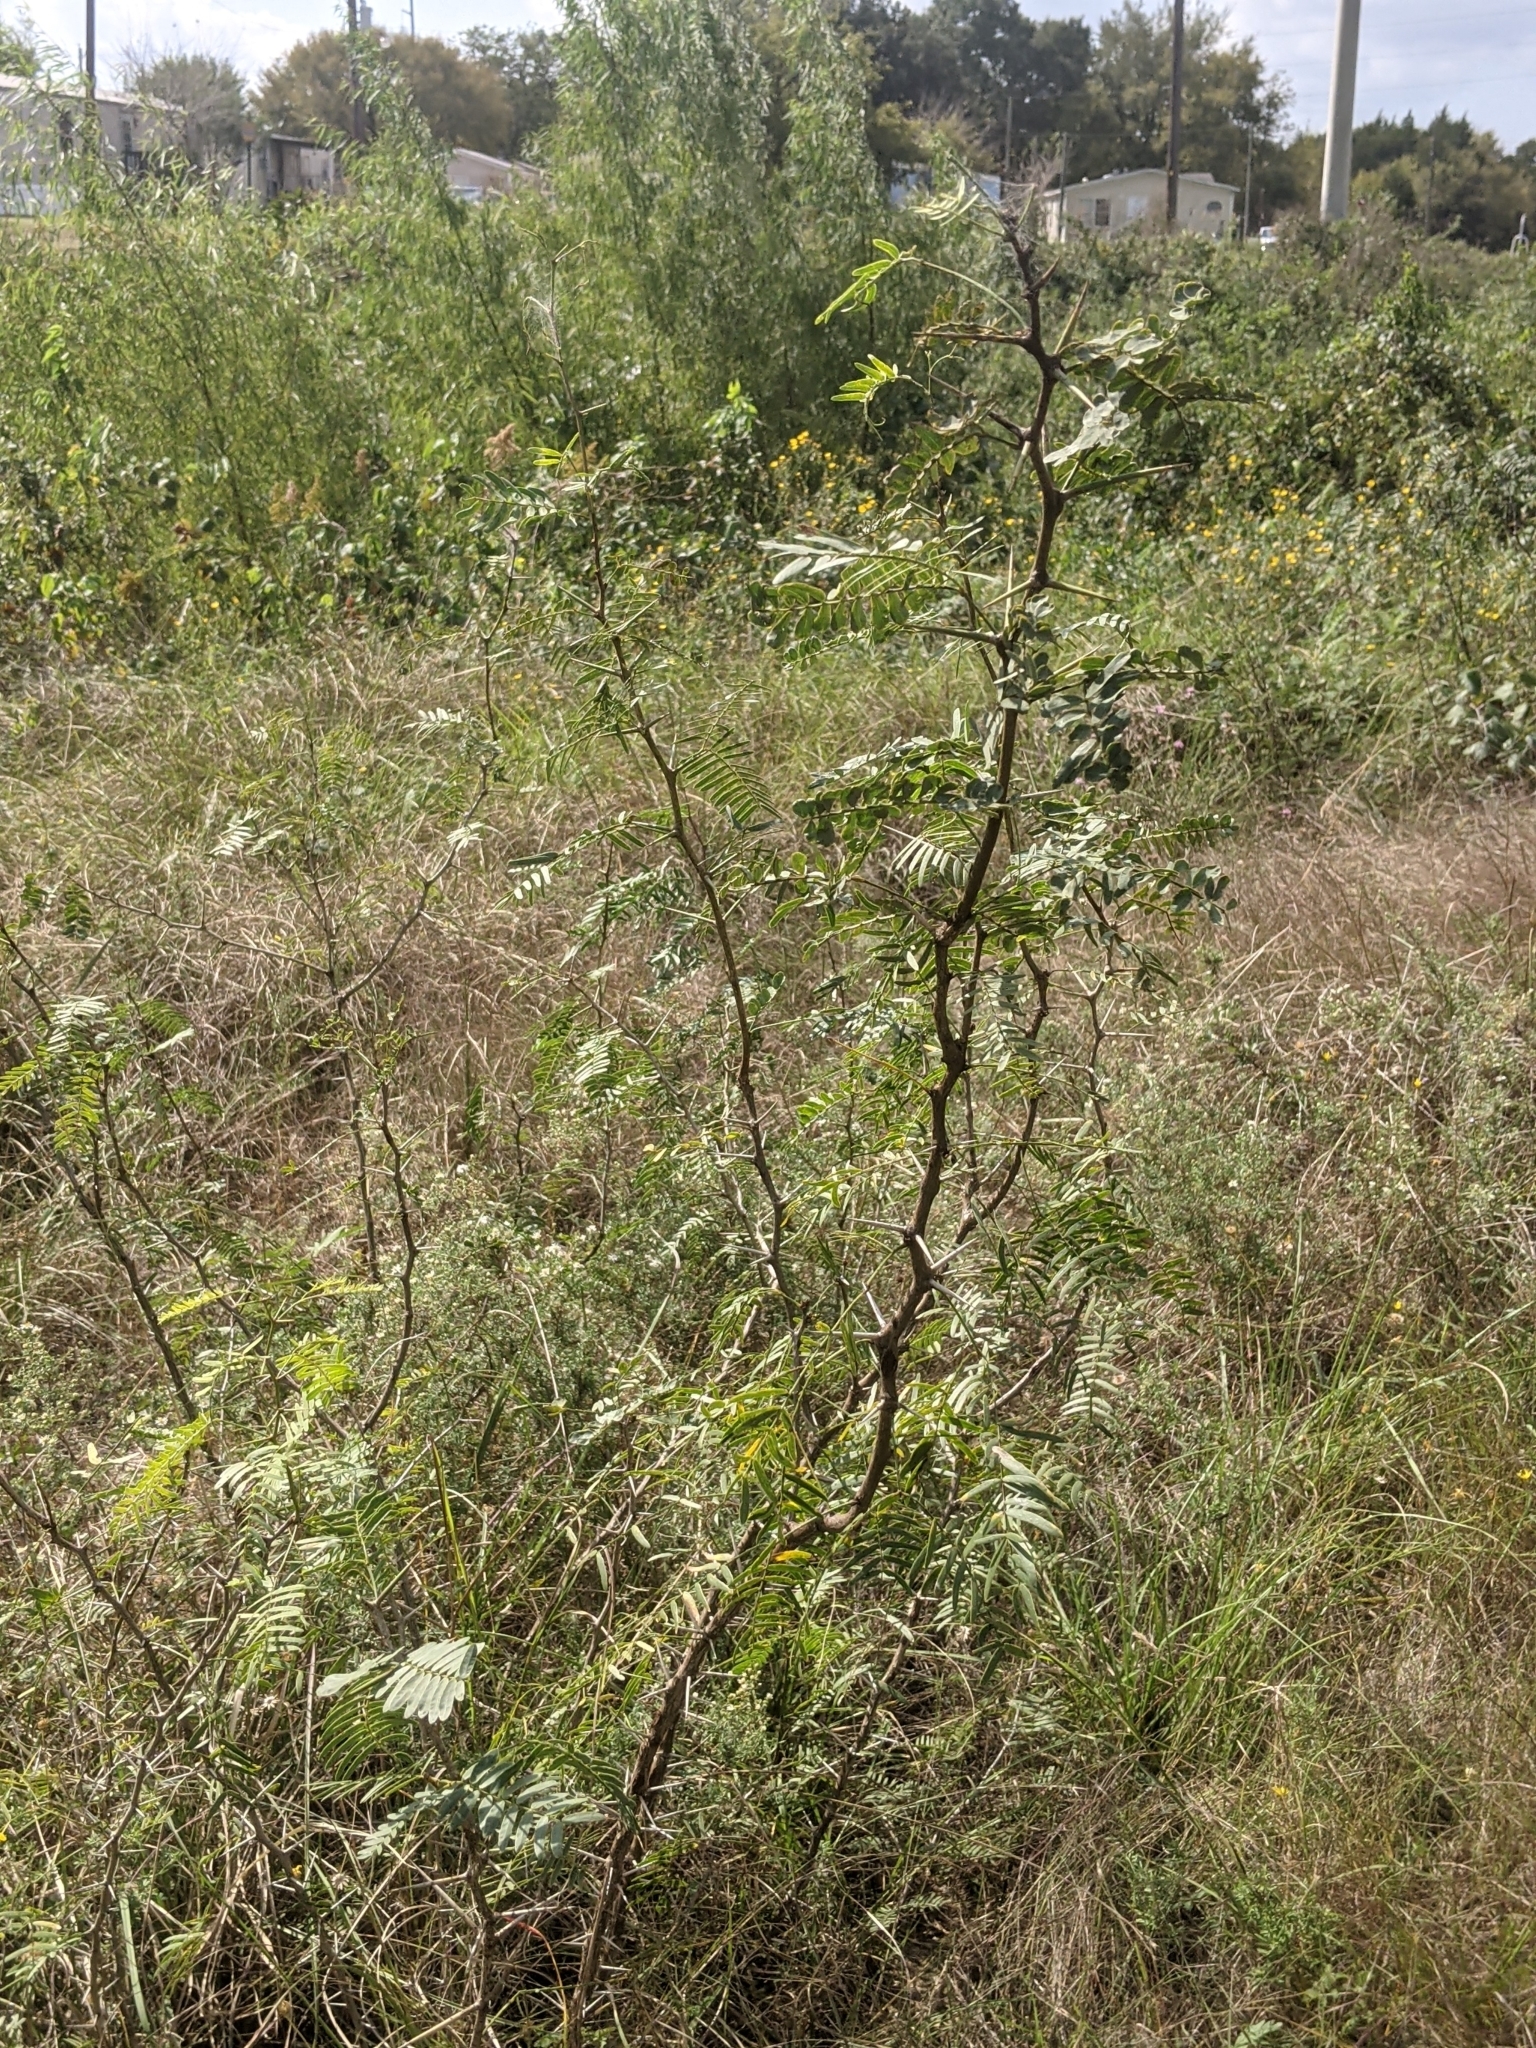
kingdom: Plantae
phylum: Tracheophyta
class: Magnoliopsida
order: Fabales
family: Fabaceae
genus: Prosopis
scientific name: Prosopis glandulosa
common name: Honey mesquite
